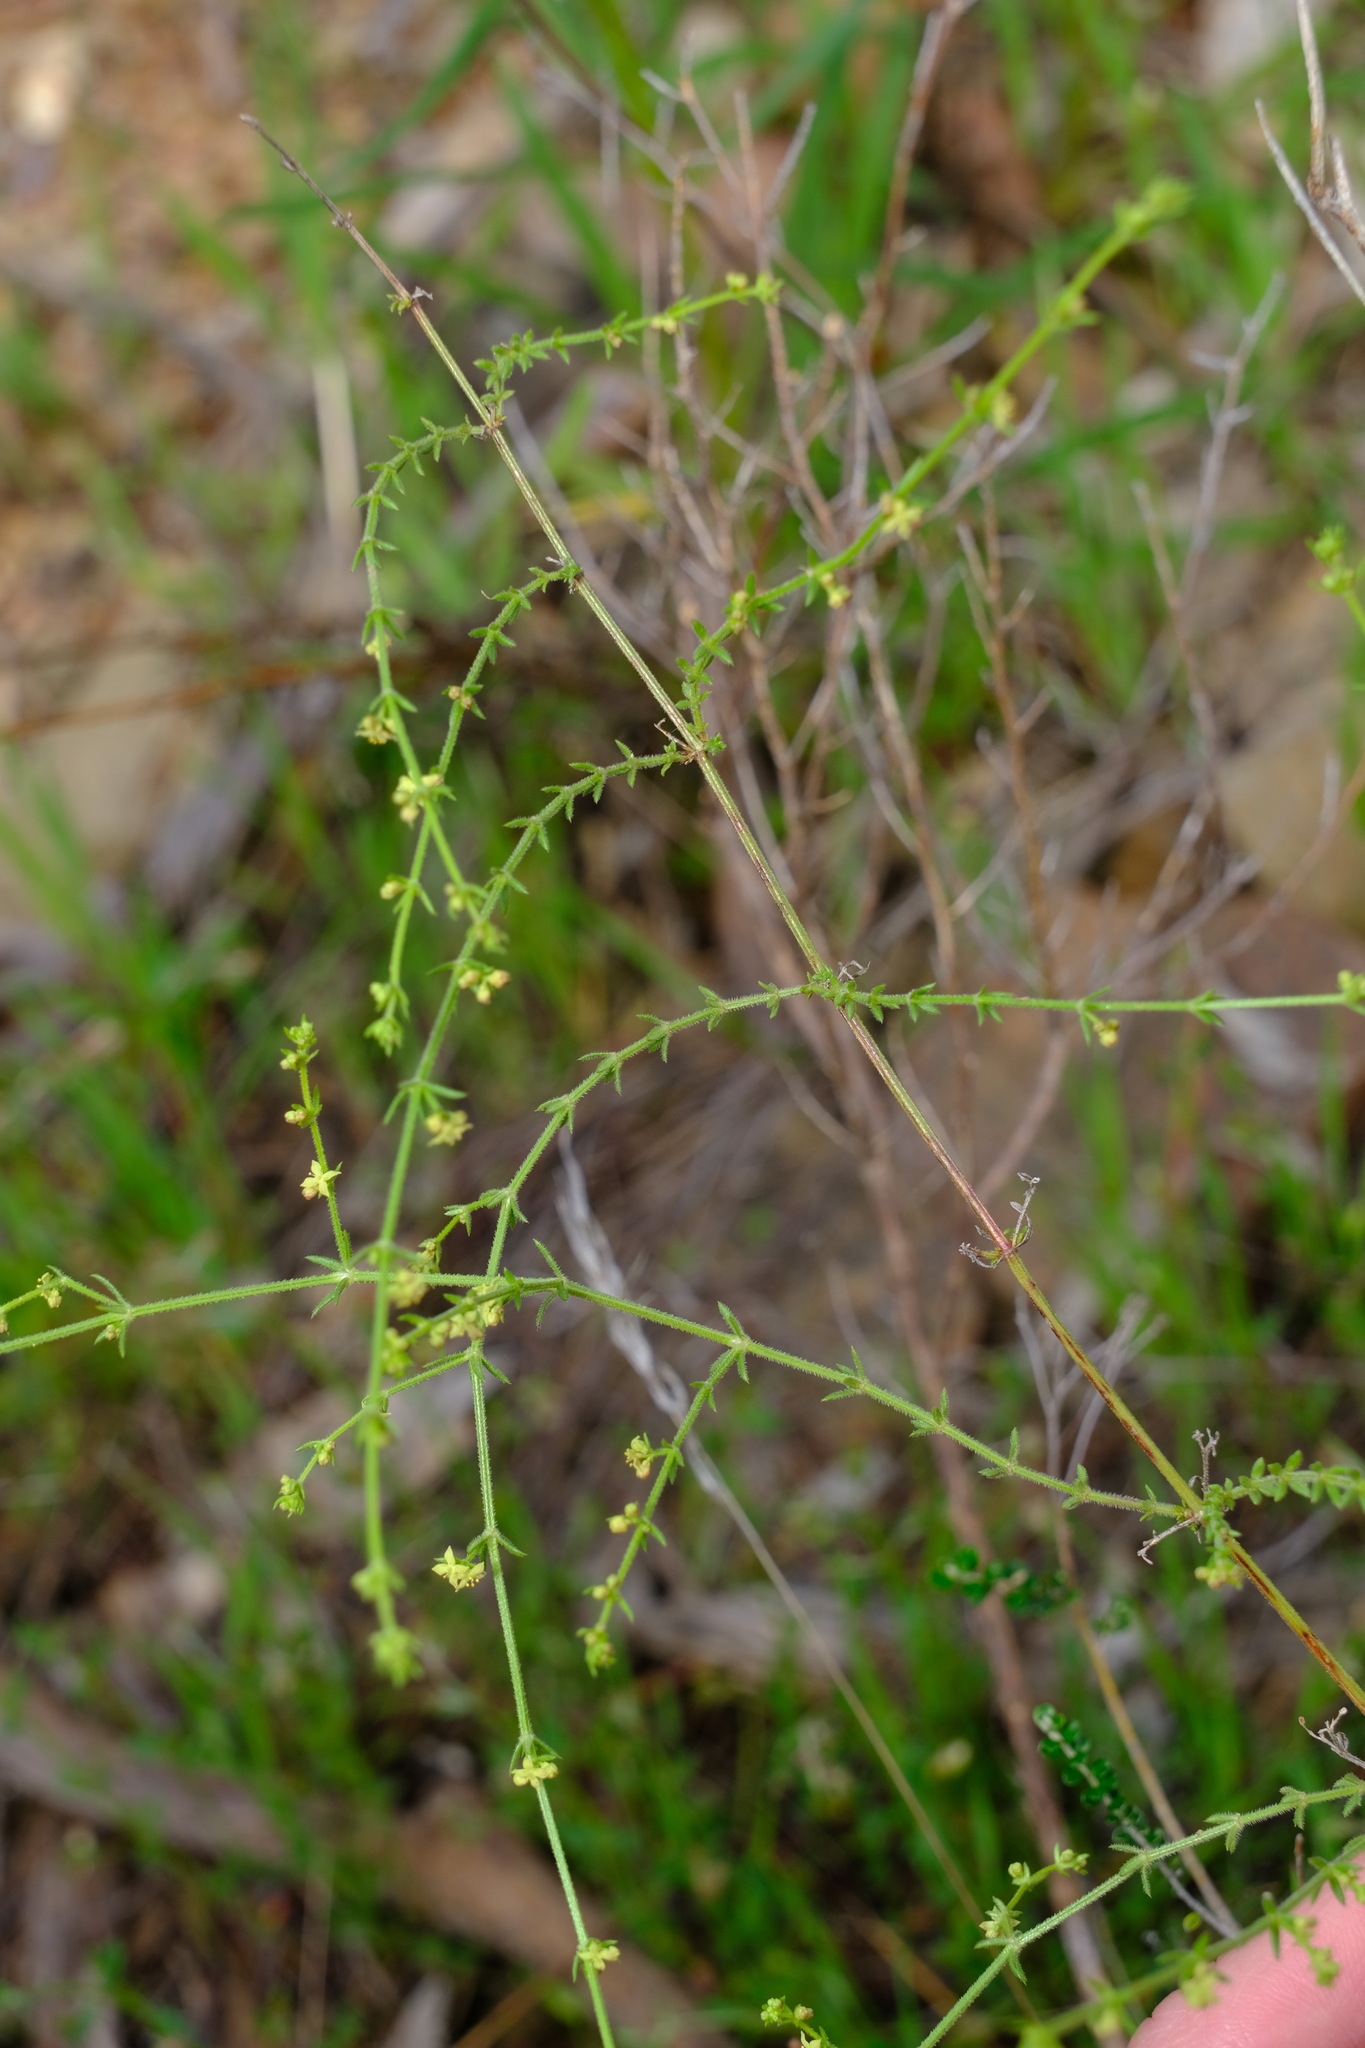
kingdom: Plantae
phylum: Tracheophyta
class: Magnoliopsida
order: Gentianales
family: Rubiaceae
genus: Galium
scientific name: Galium gaudichaudii
